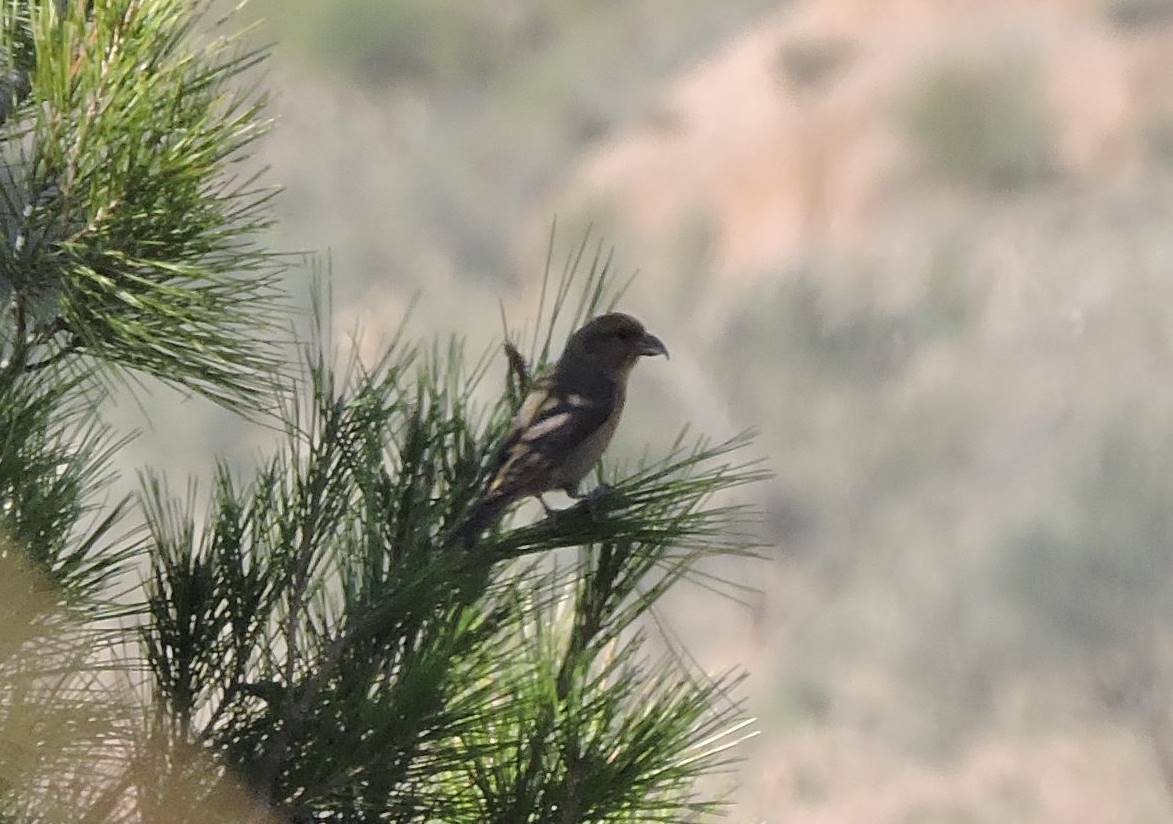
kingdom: Animalia
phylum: Chordata
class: Aves
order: Passeriformes
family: Fringillidae
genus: Loxia
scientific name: Loxia curvirostra
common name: Red crossbill
